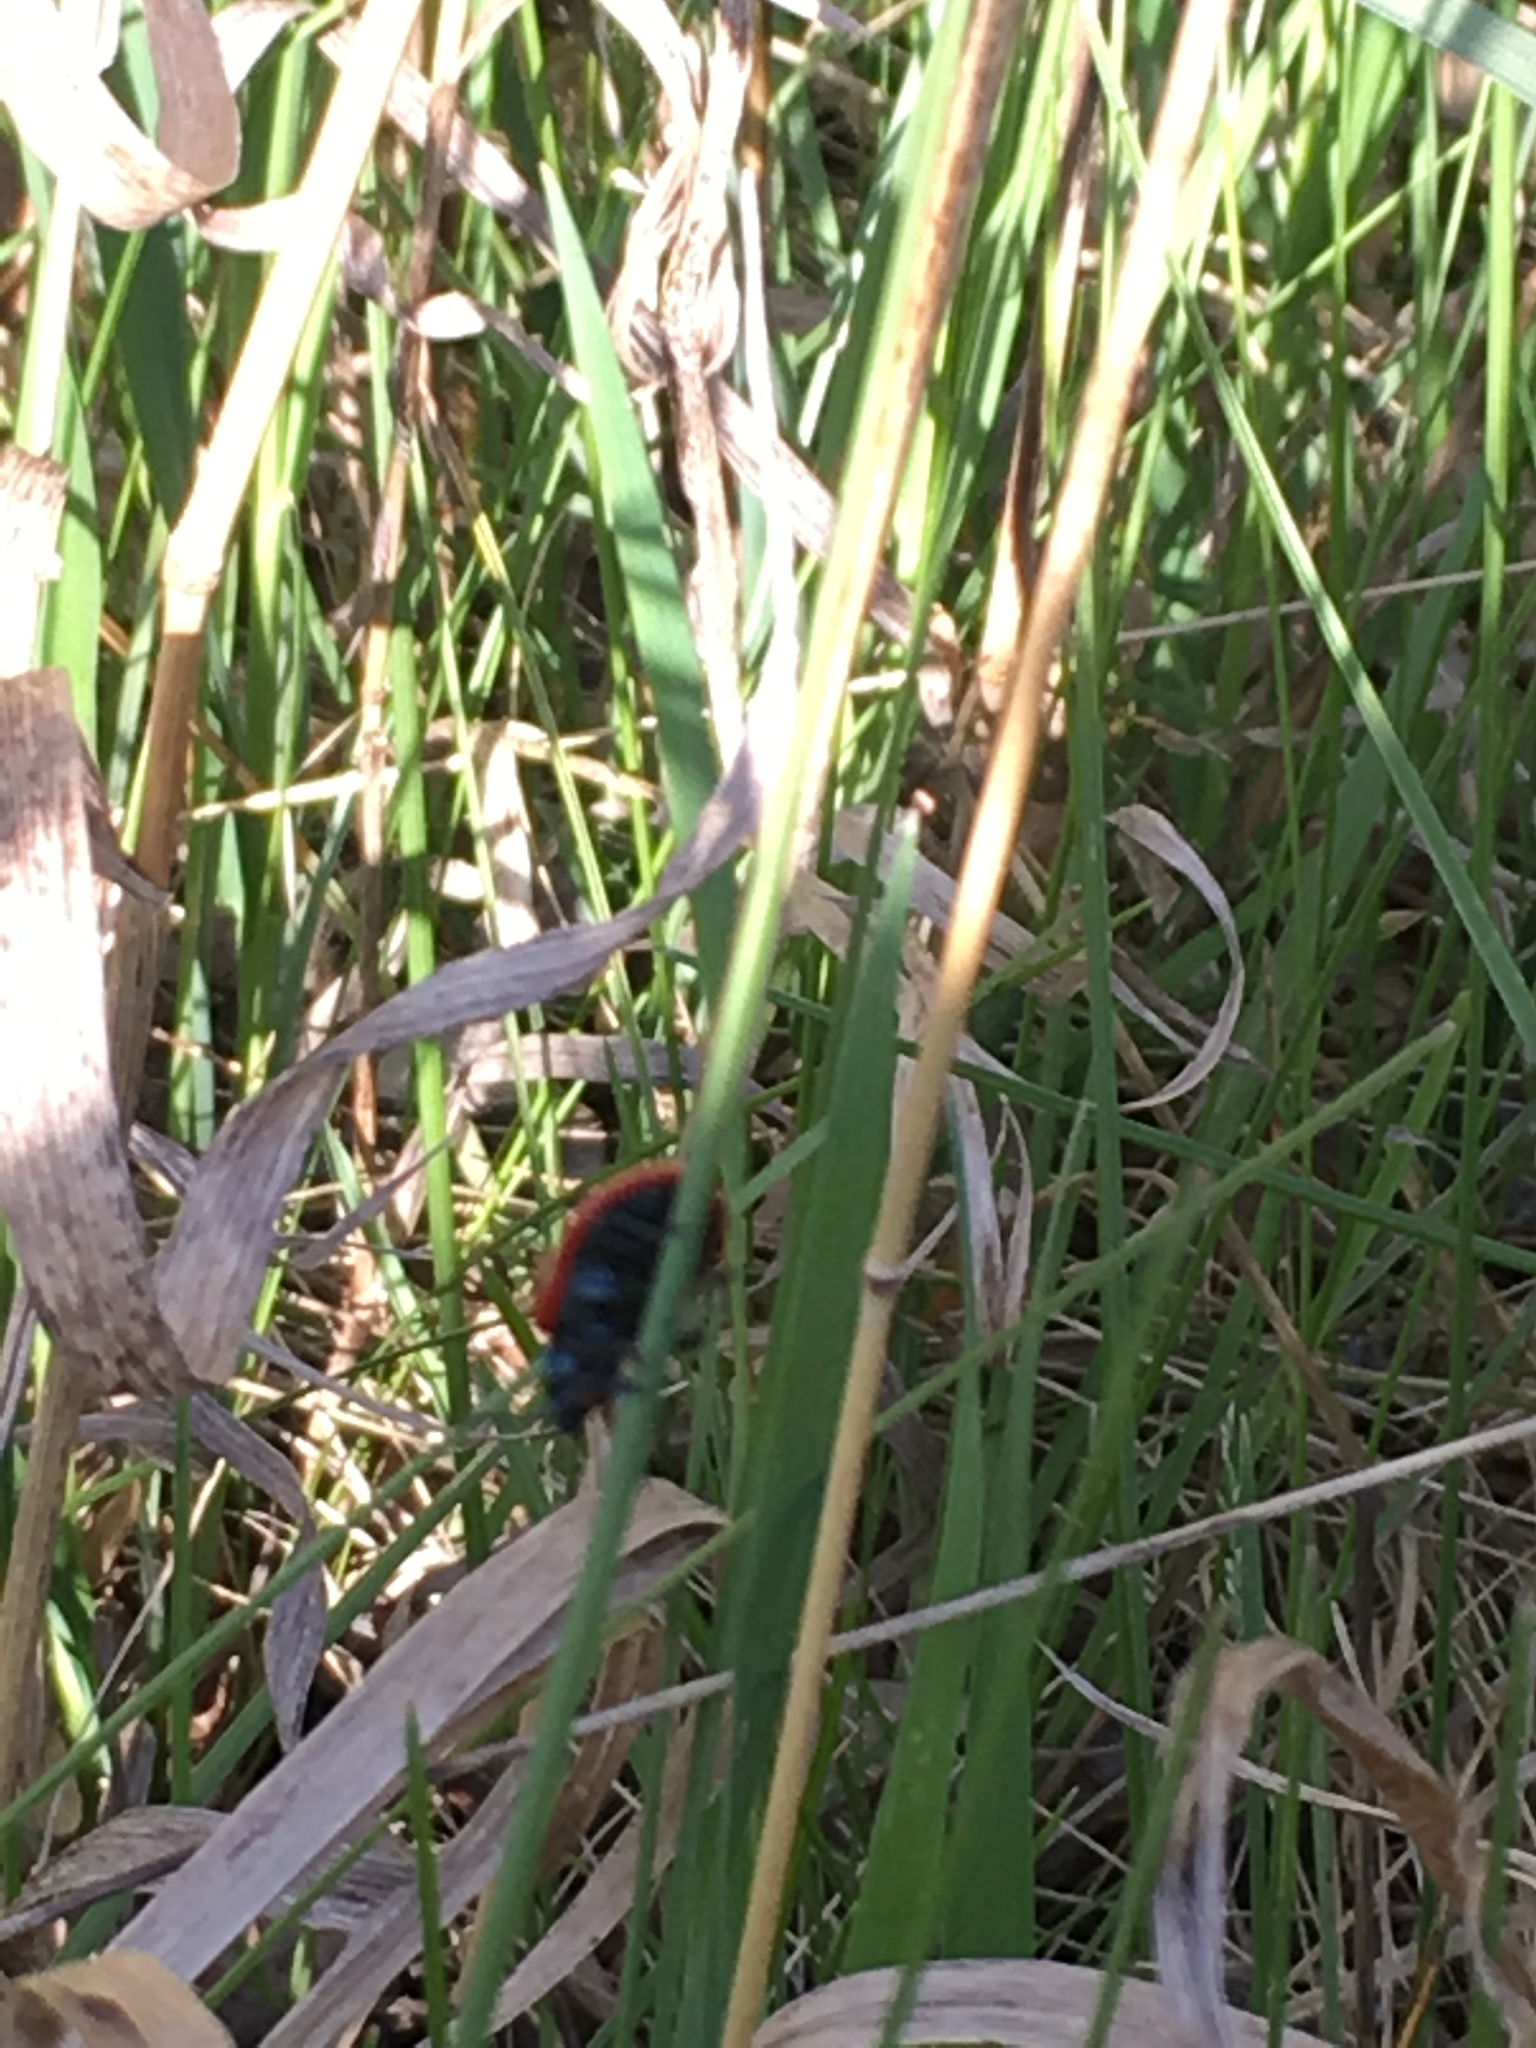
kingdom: Animalia
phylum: Arthropoda
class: Insecta
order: Coleoptera
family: Chrysomelidae
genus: Chrysomela
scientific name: Chrysomela populi
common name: Red poplar leaf beetle
